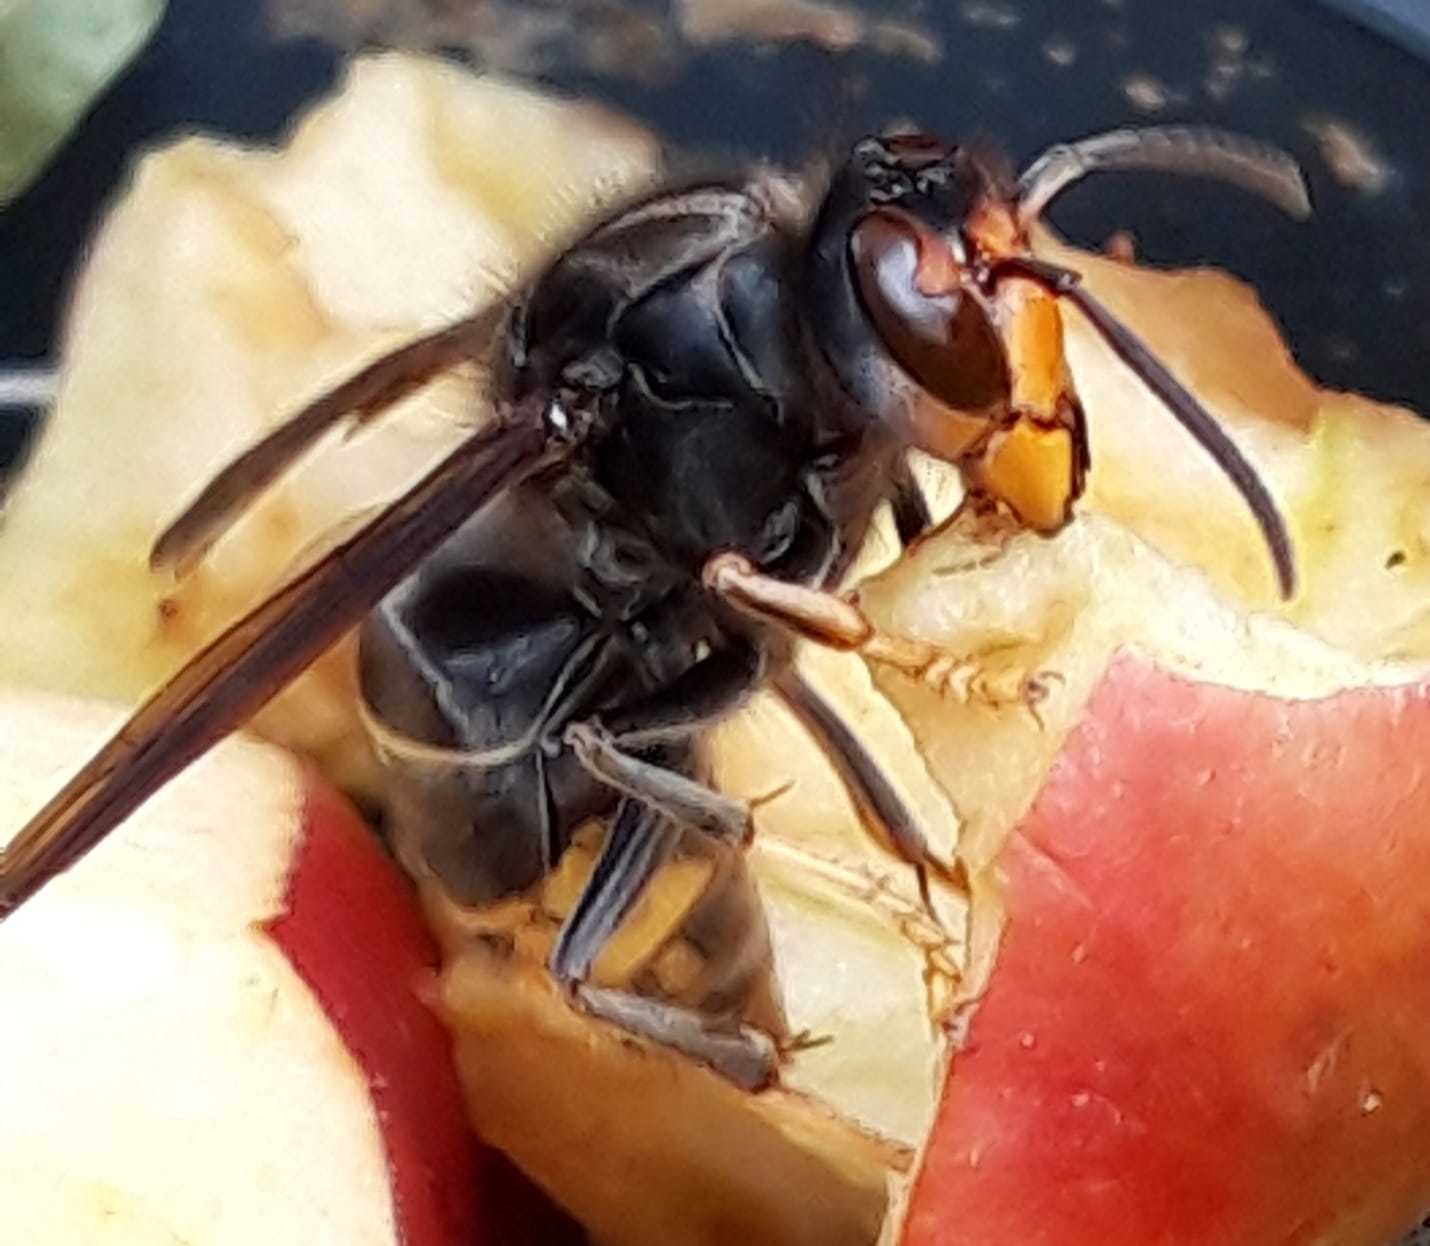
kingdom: Animalia
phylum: Arthropoda
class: Insecta
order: Hymenoptera
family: Vespidae
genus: Vespa
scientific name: Vespa velutina
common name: Asian hornet
